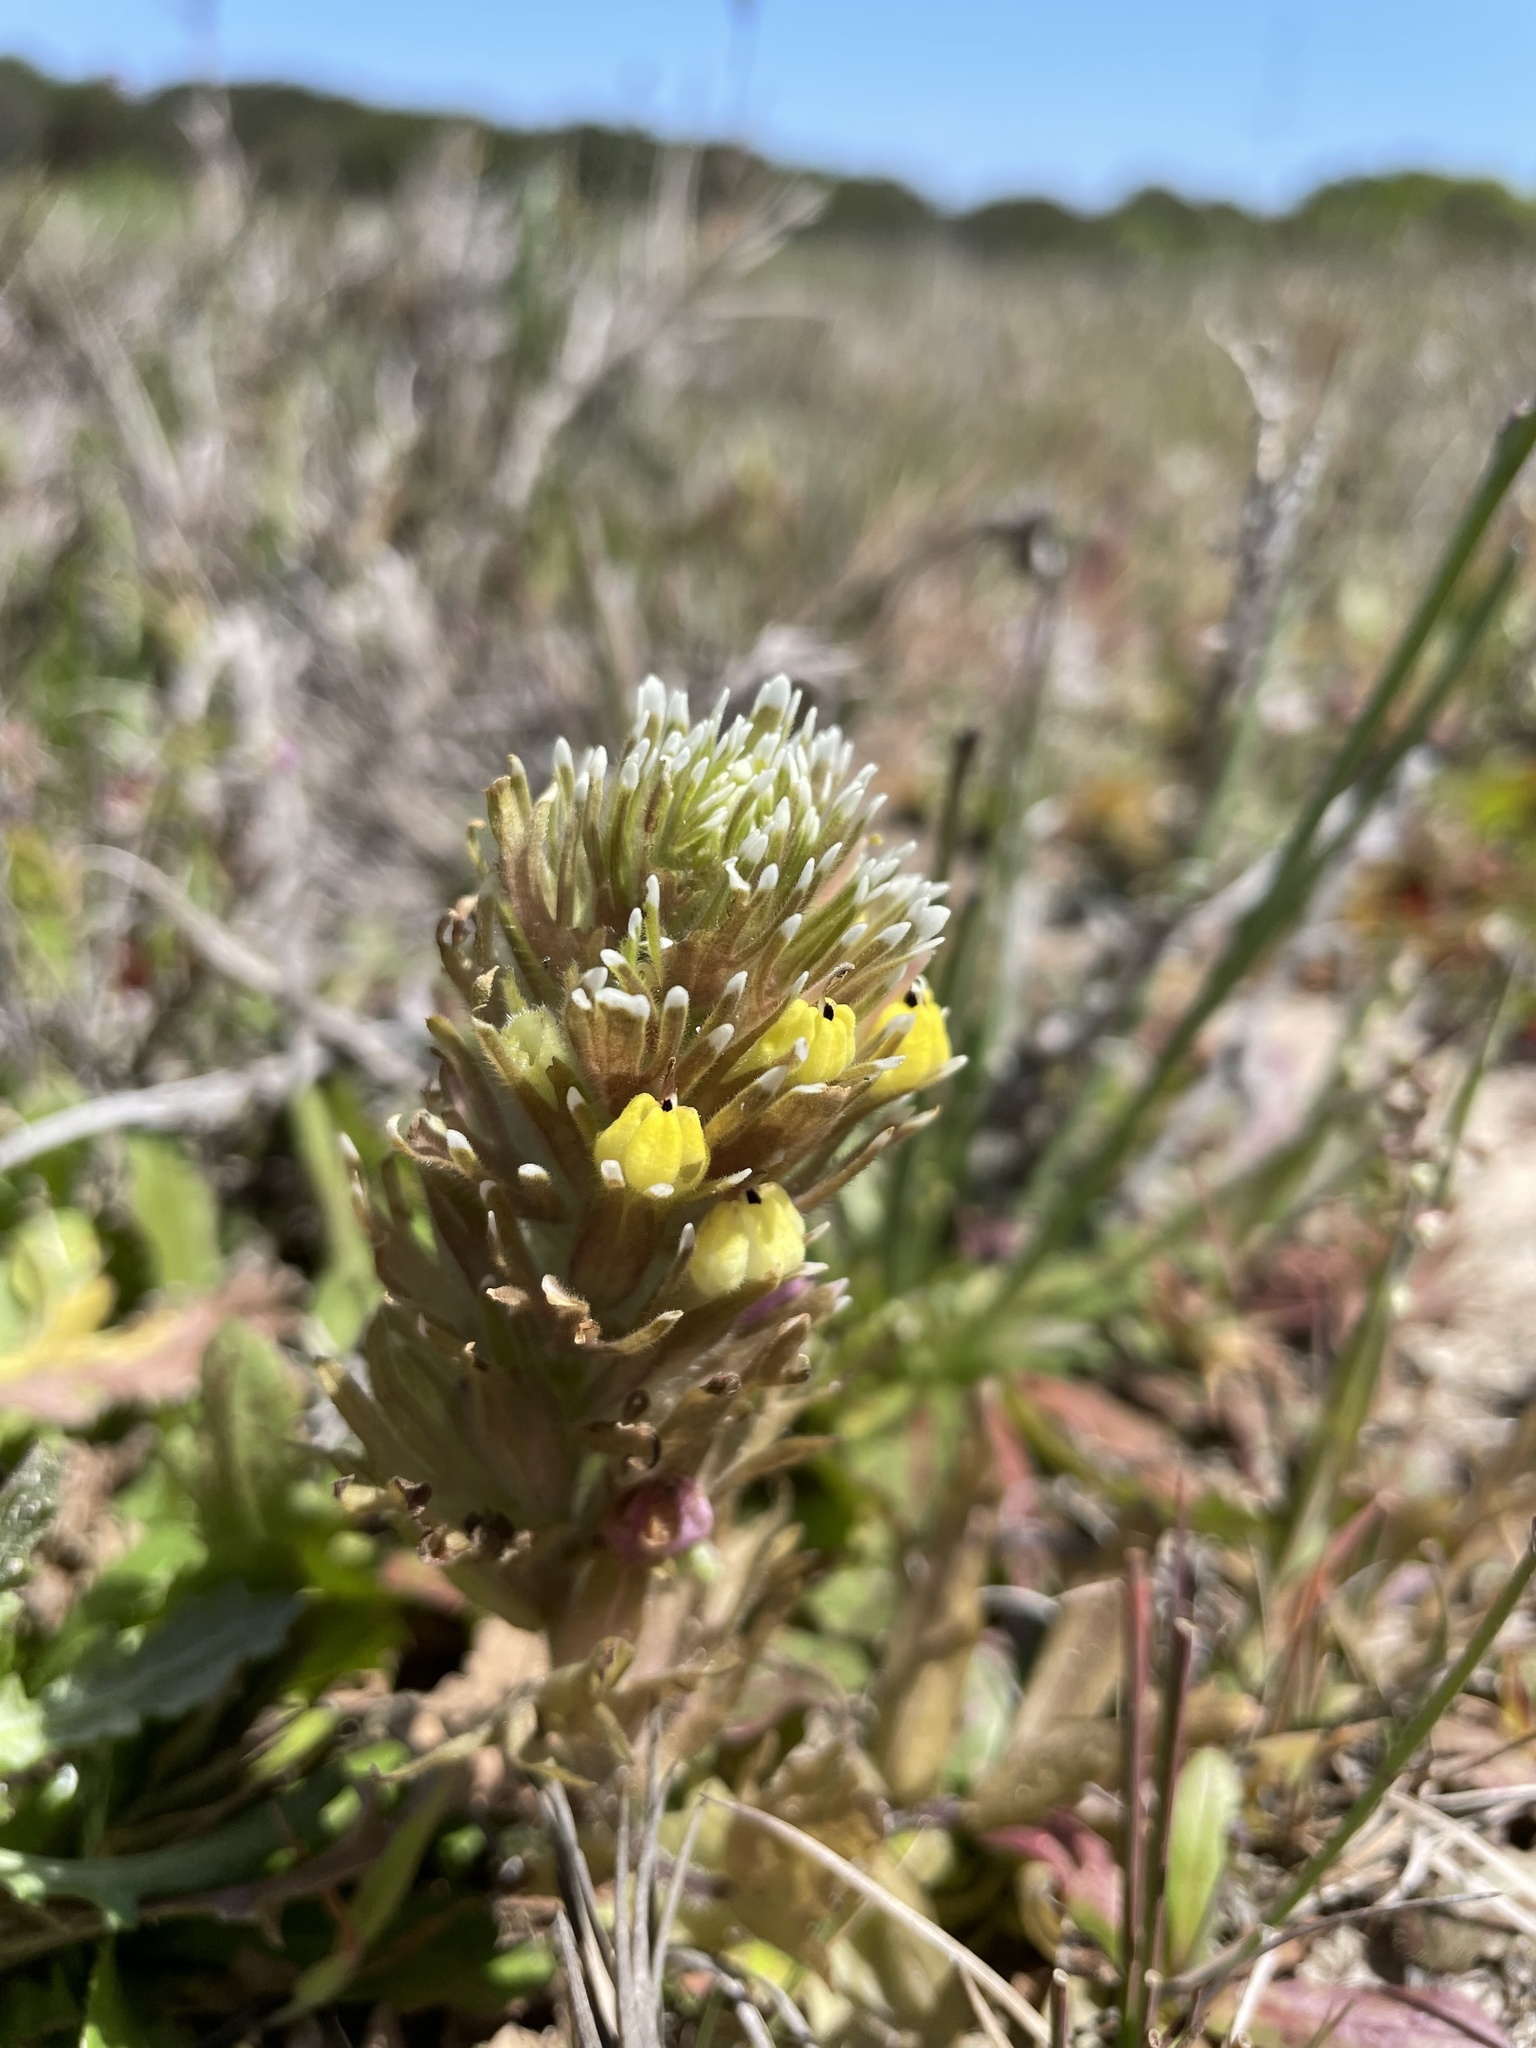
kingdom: Plantae
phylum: Tracheophyta
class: Magnoliopsida
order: Lamiales
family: Orobanchaceae
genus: Castilleja
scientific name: Castilleja ambigua
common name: Johnny-nip
